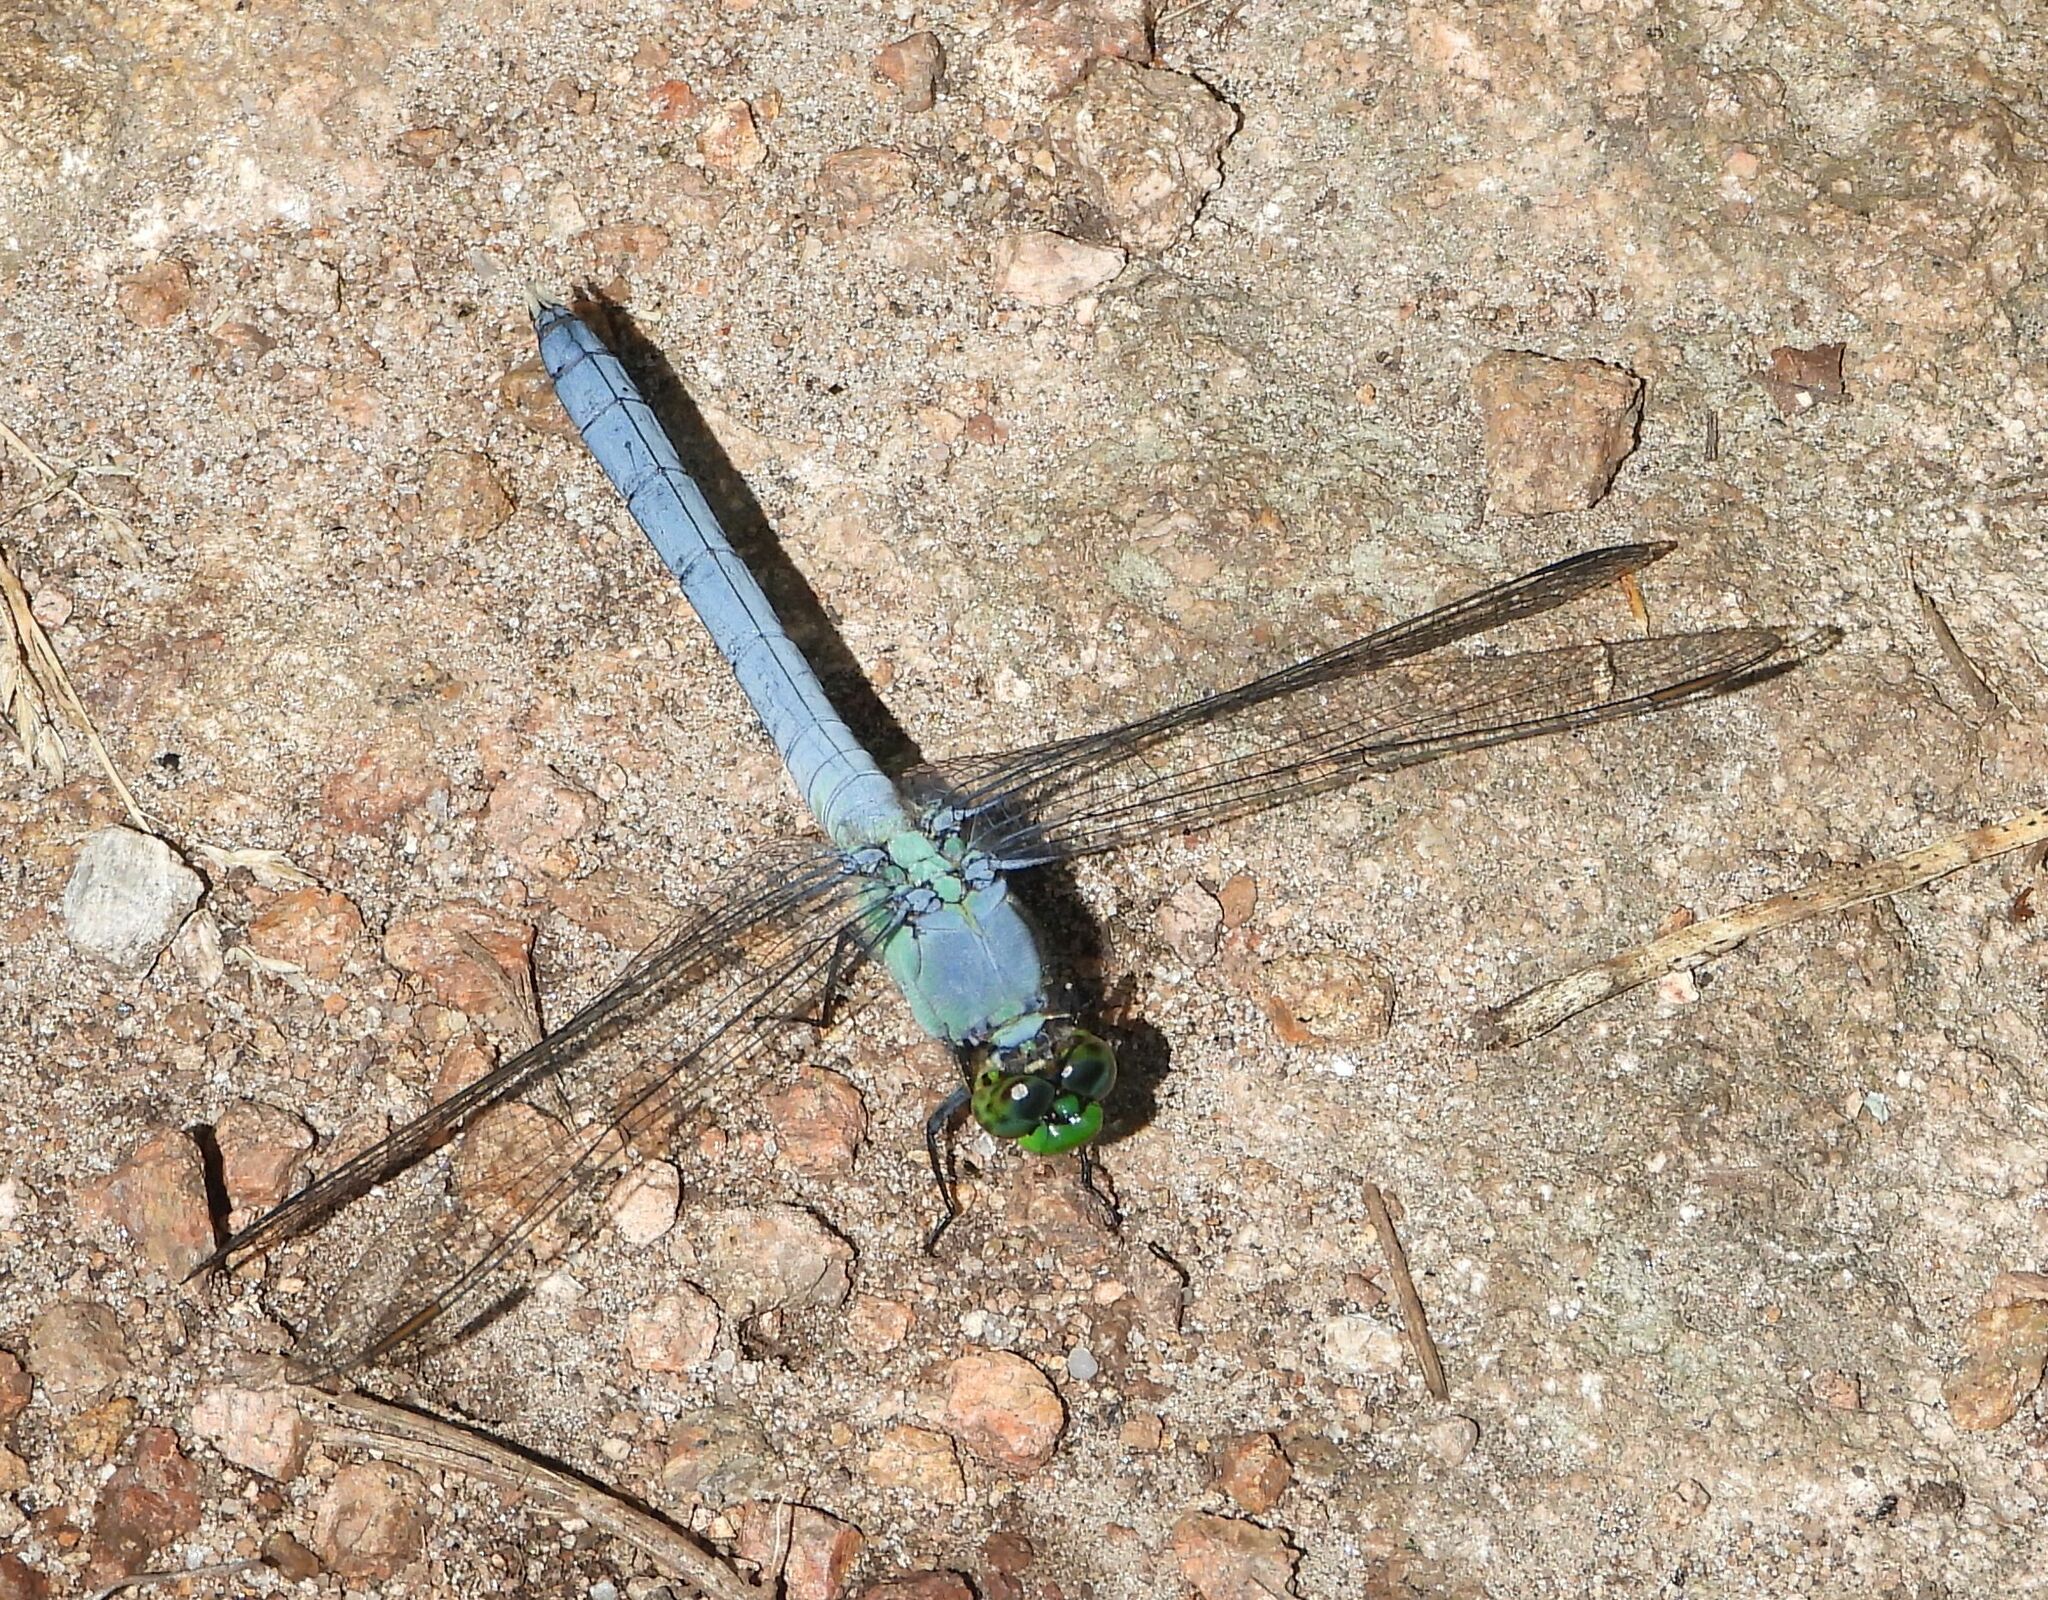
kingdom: Animalia
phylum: Arthropoda
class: Insecta
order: Odonata
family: Libellulidae
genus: Erythemis
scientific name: Erythemis simplicicollis
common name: Eastern pondhawk
